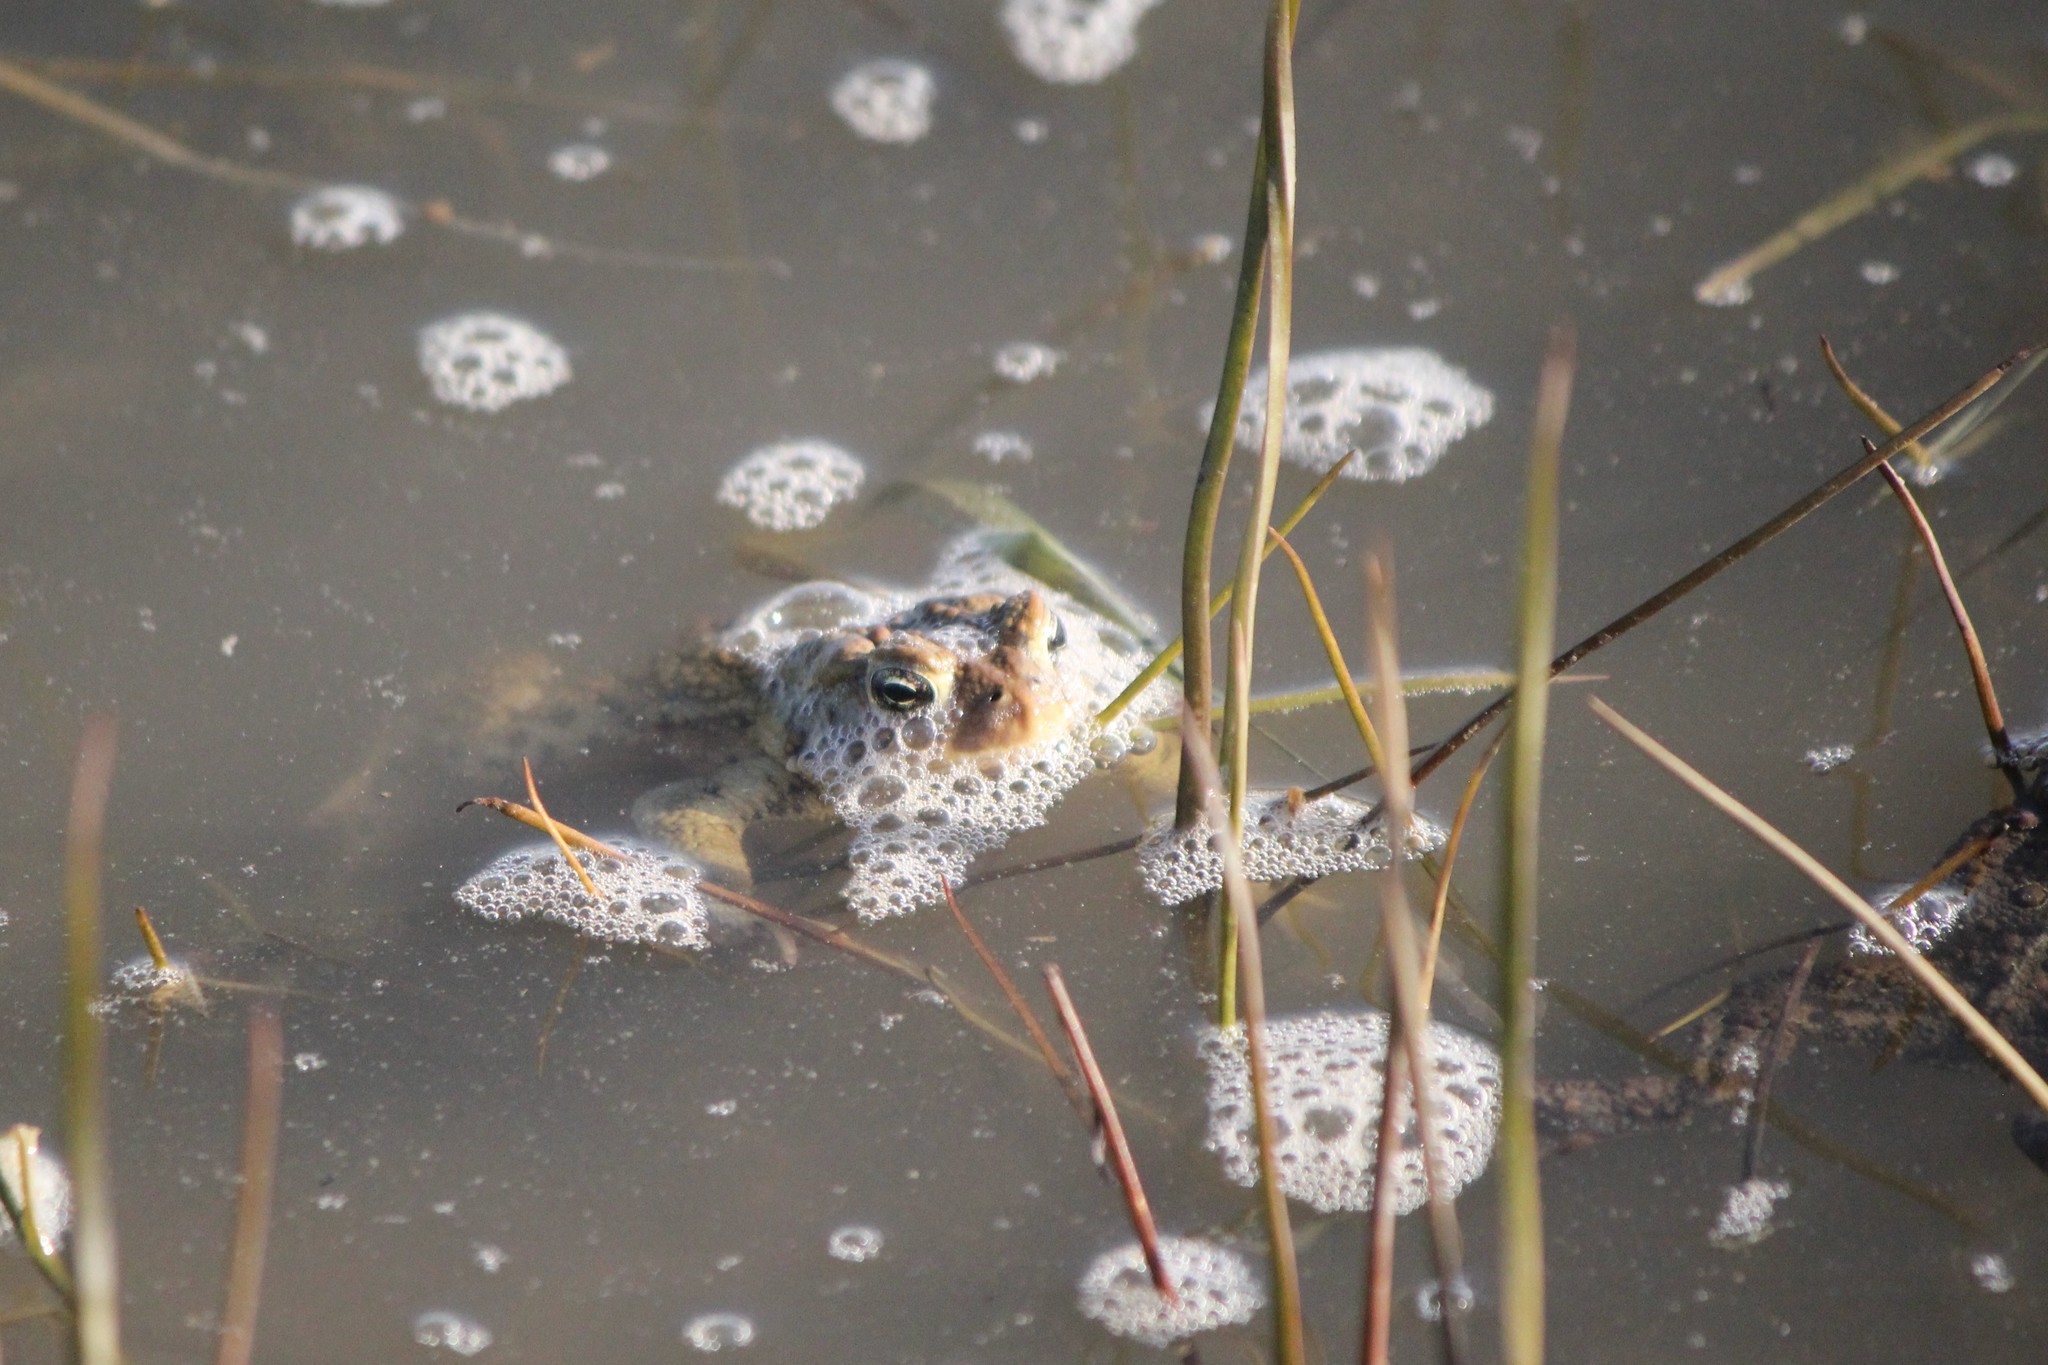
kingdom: Animalia
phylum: Chordata
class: Amphibia
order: Anura
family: Bufonidae
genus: Anaxyrus
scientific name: Anaxyrus americanus
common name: American toad
